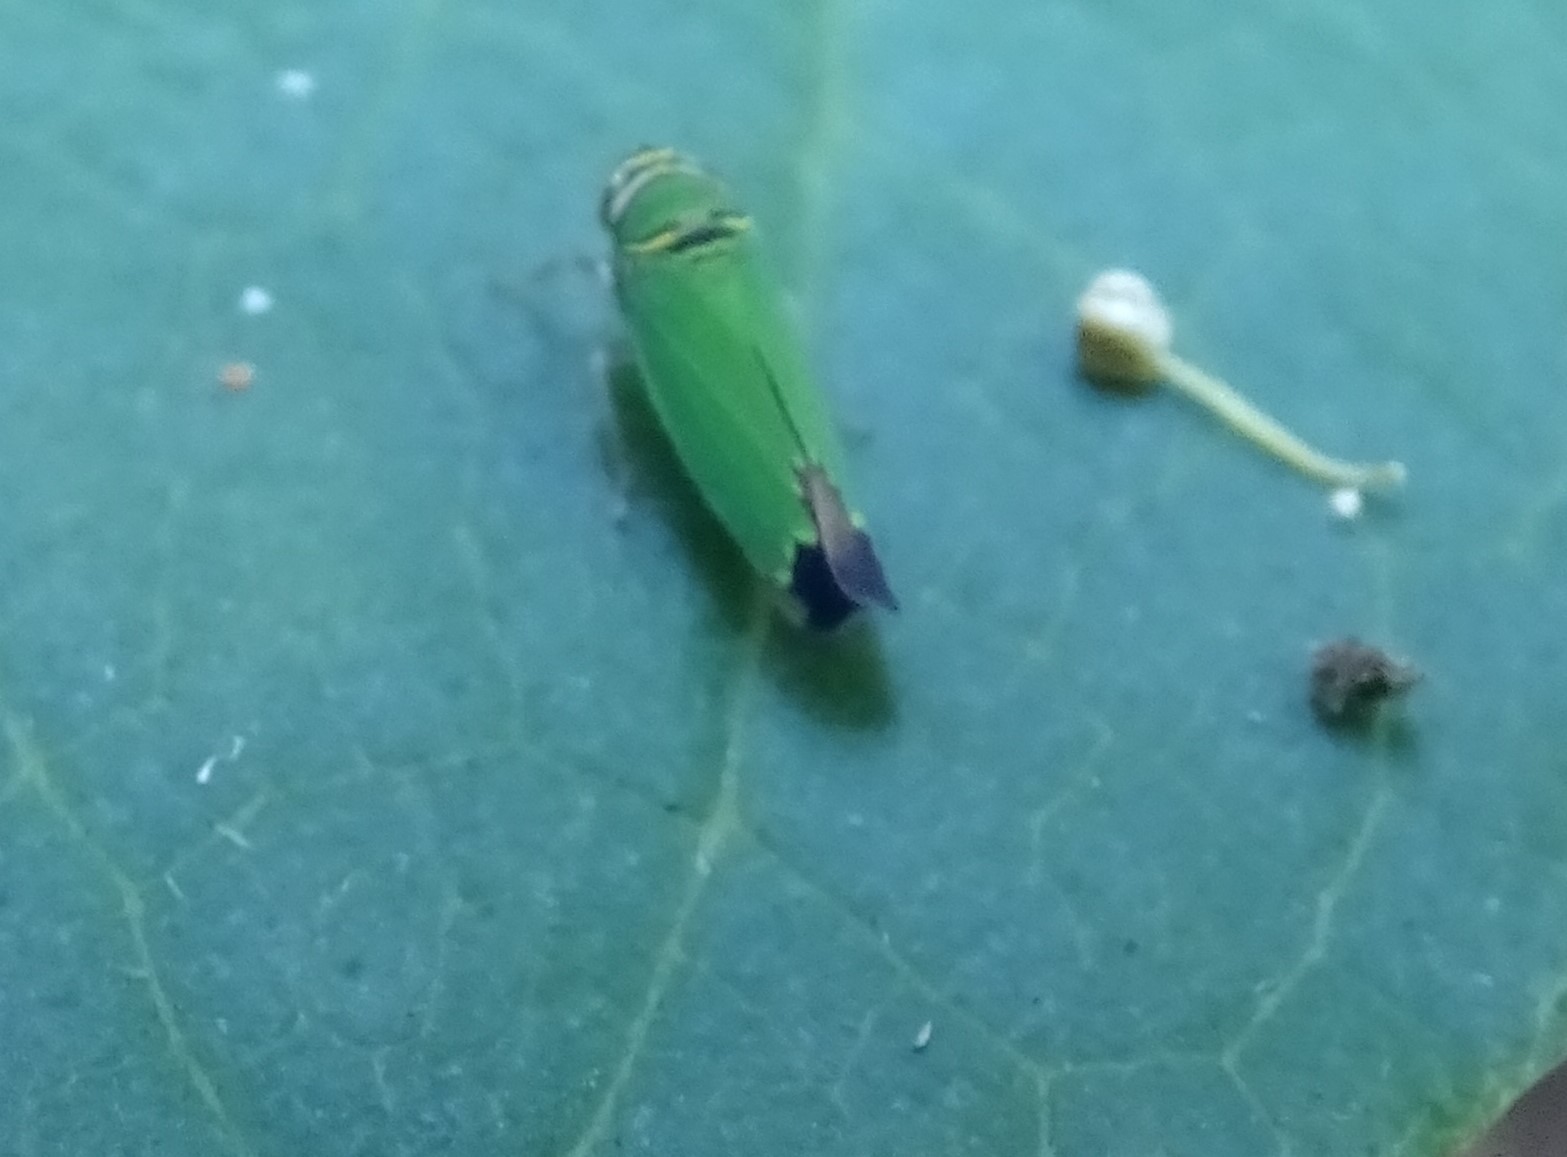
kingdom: Animalia
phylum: Arthropoda
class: Insecta
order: Hemiptera
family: Cicadellidae
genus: Tylozygus
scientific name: Tylozygus geometricus
